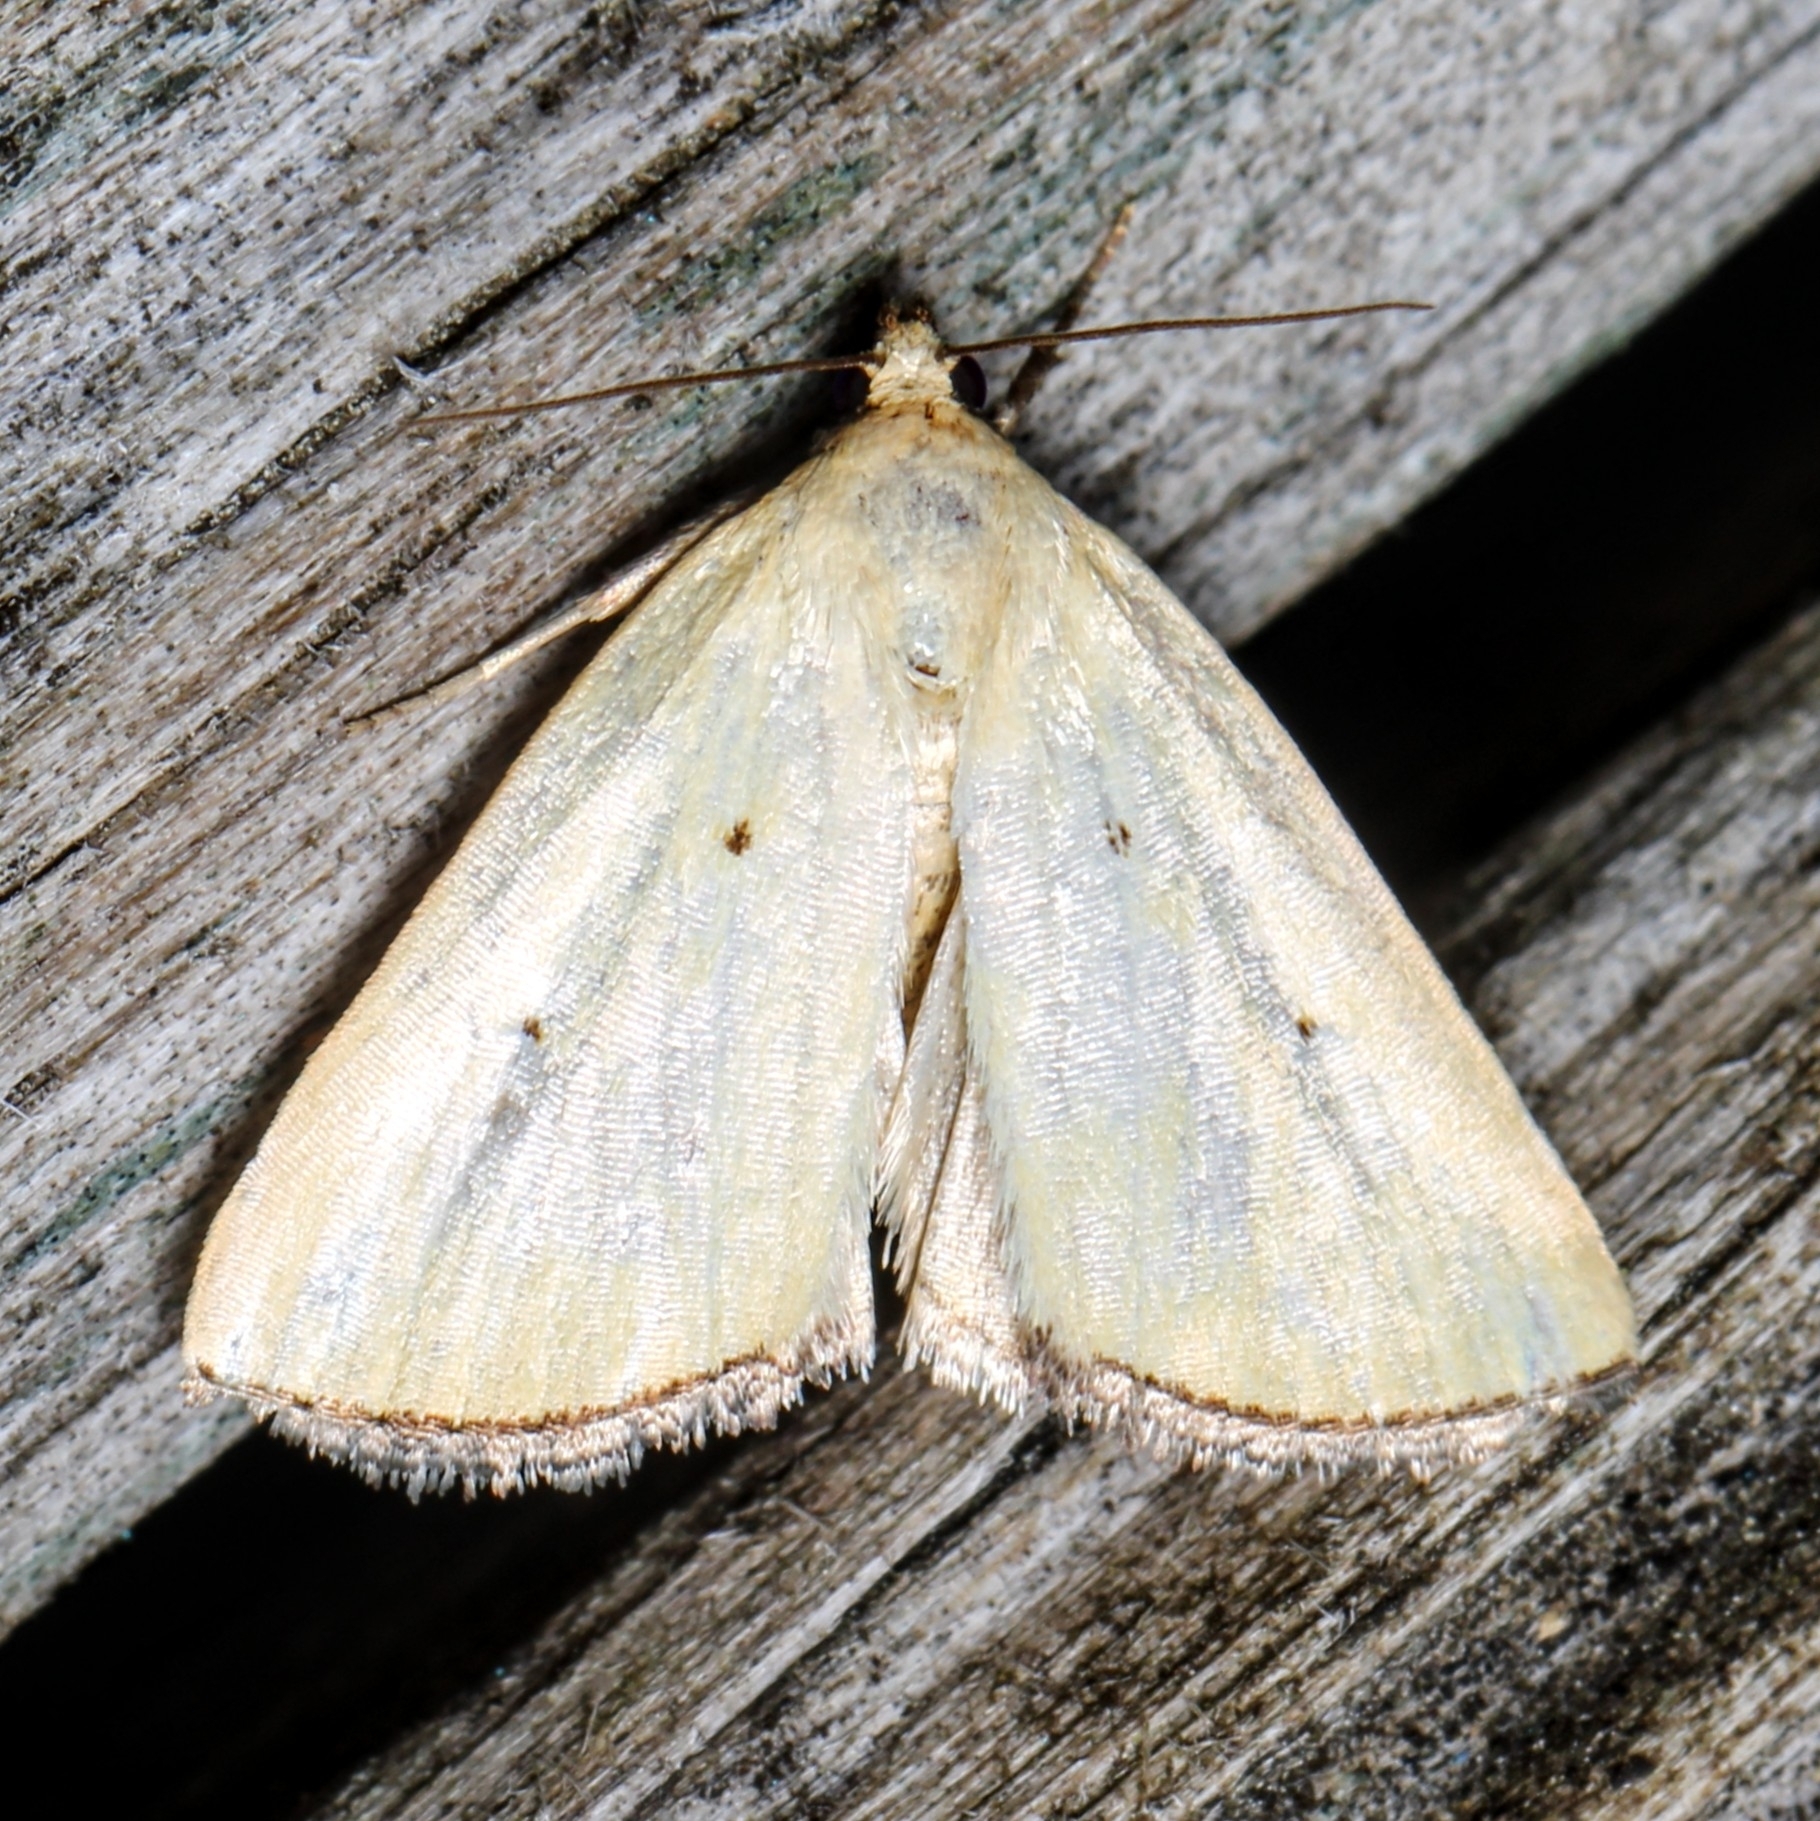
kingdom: Animalia
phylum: Arthropoda
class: Insecta
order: Lepidoptera
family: Noctuidae
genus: Marimatha
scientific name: Marimatha nigrofimbria
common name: Black-bordered lemon moth
